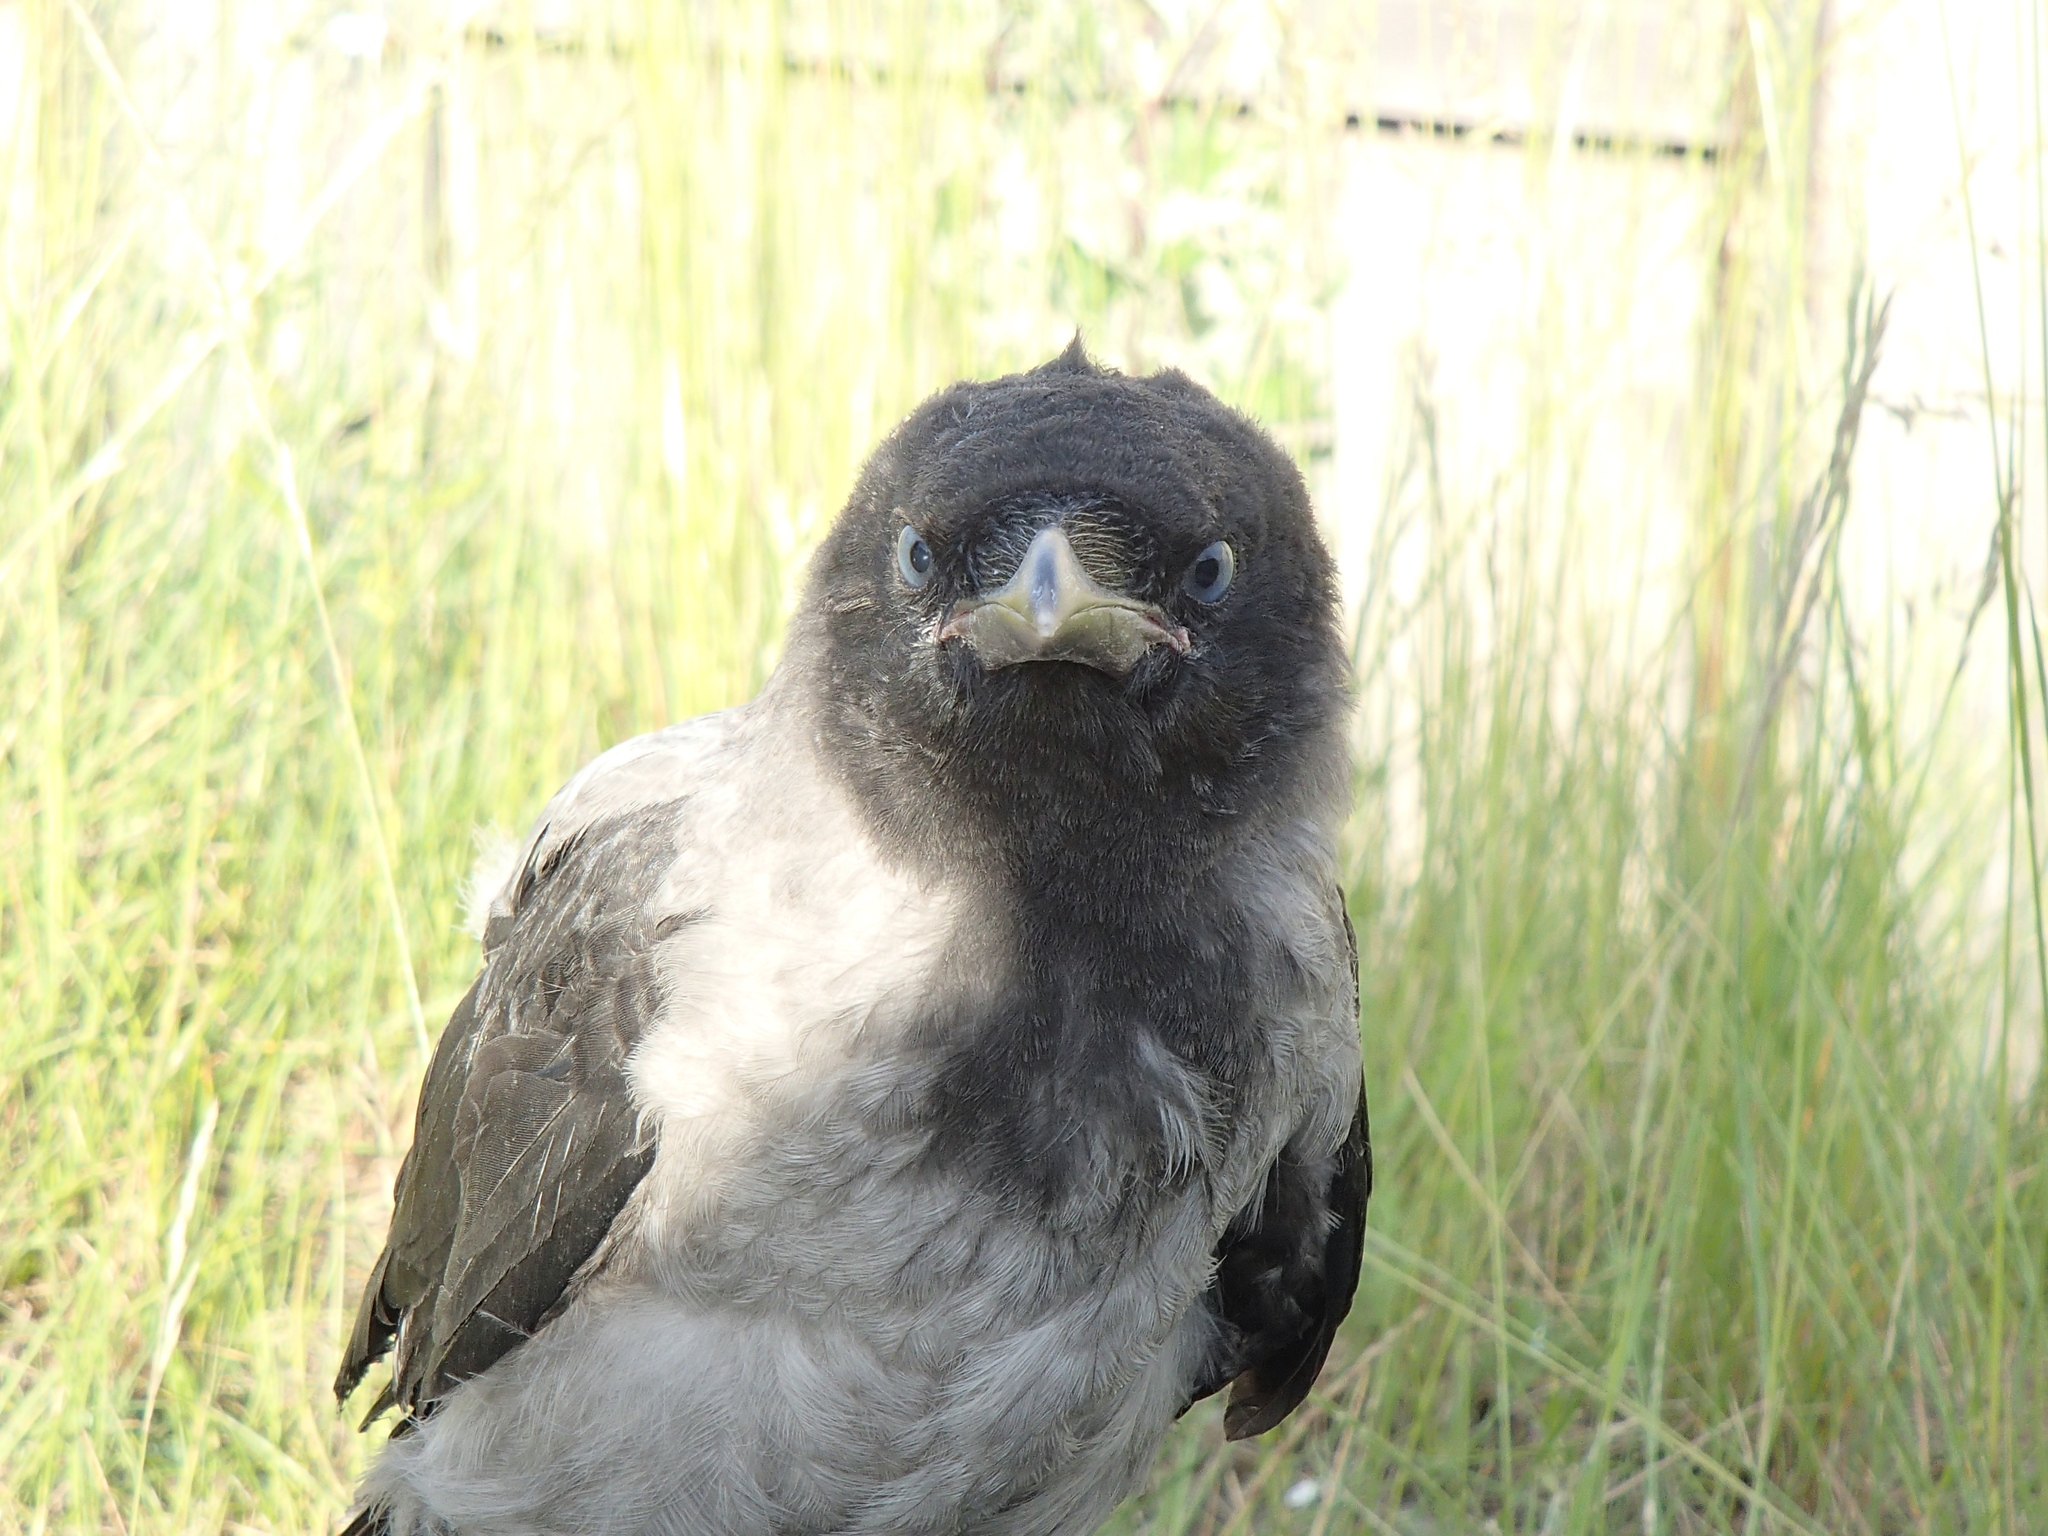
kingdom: Animalia
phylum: Chordata
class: Aves
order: Passeriformes
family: Corvidae
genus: Corvus
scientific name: Corvus cornix
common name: Hooded crow
